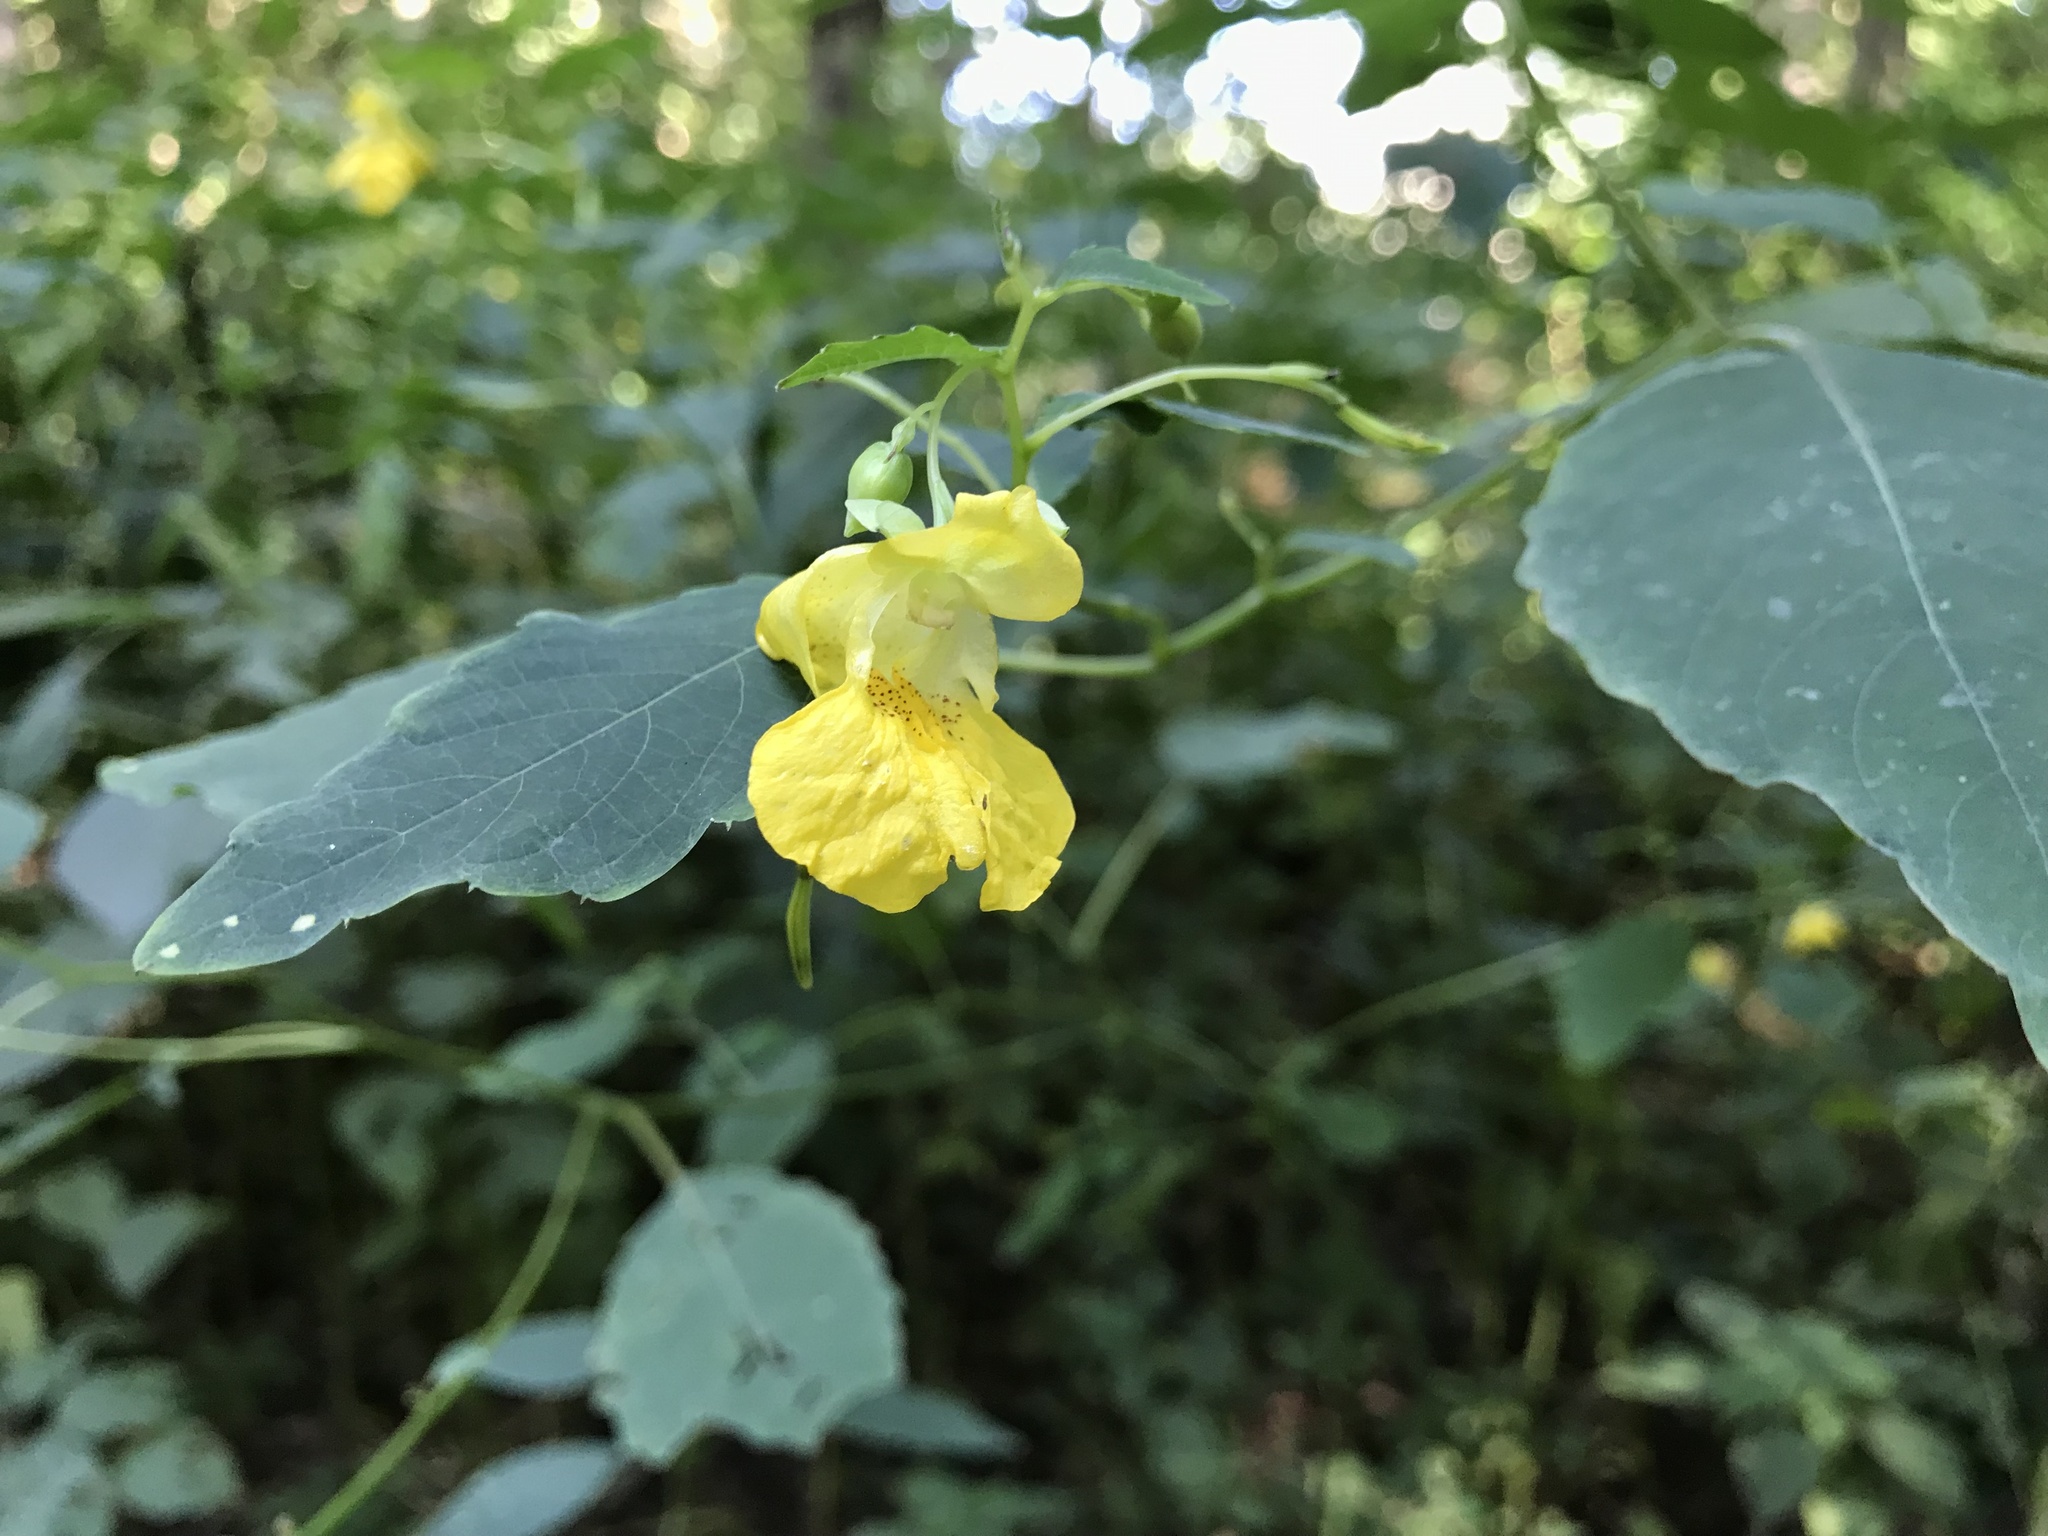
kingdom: Plantae
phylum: Tracheophyta
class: Magnoliopsida
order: Ericales
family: Balsaminaceae
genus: Impatiens
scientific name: Impatiens pallida
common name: Pale snapweed
